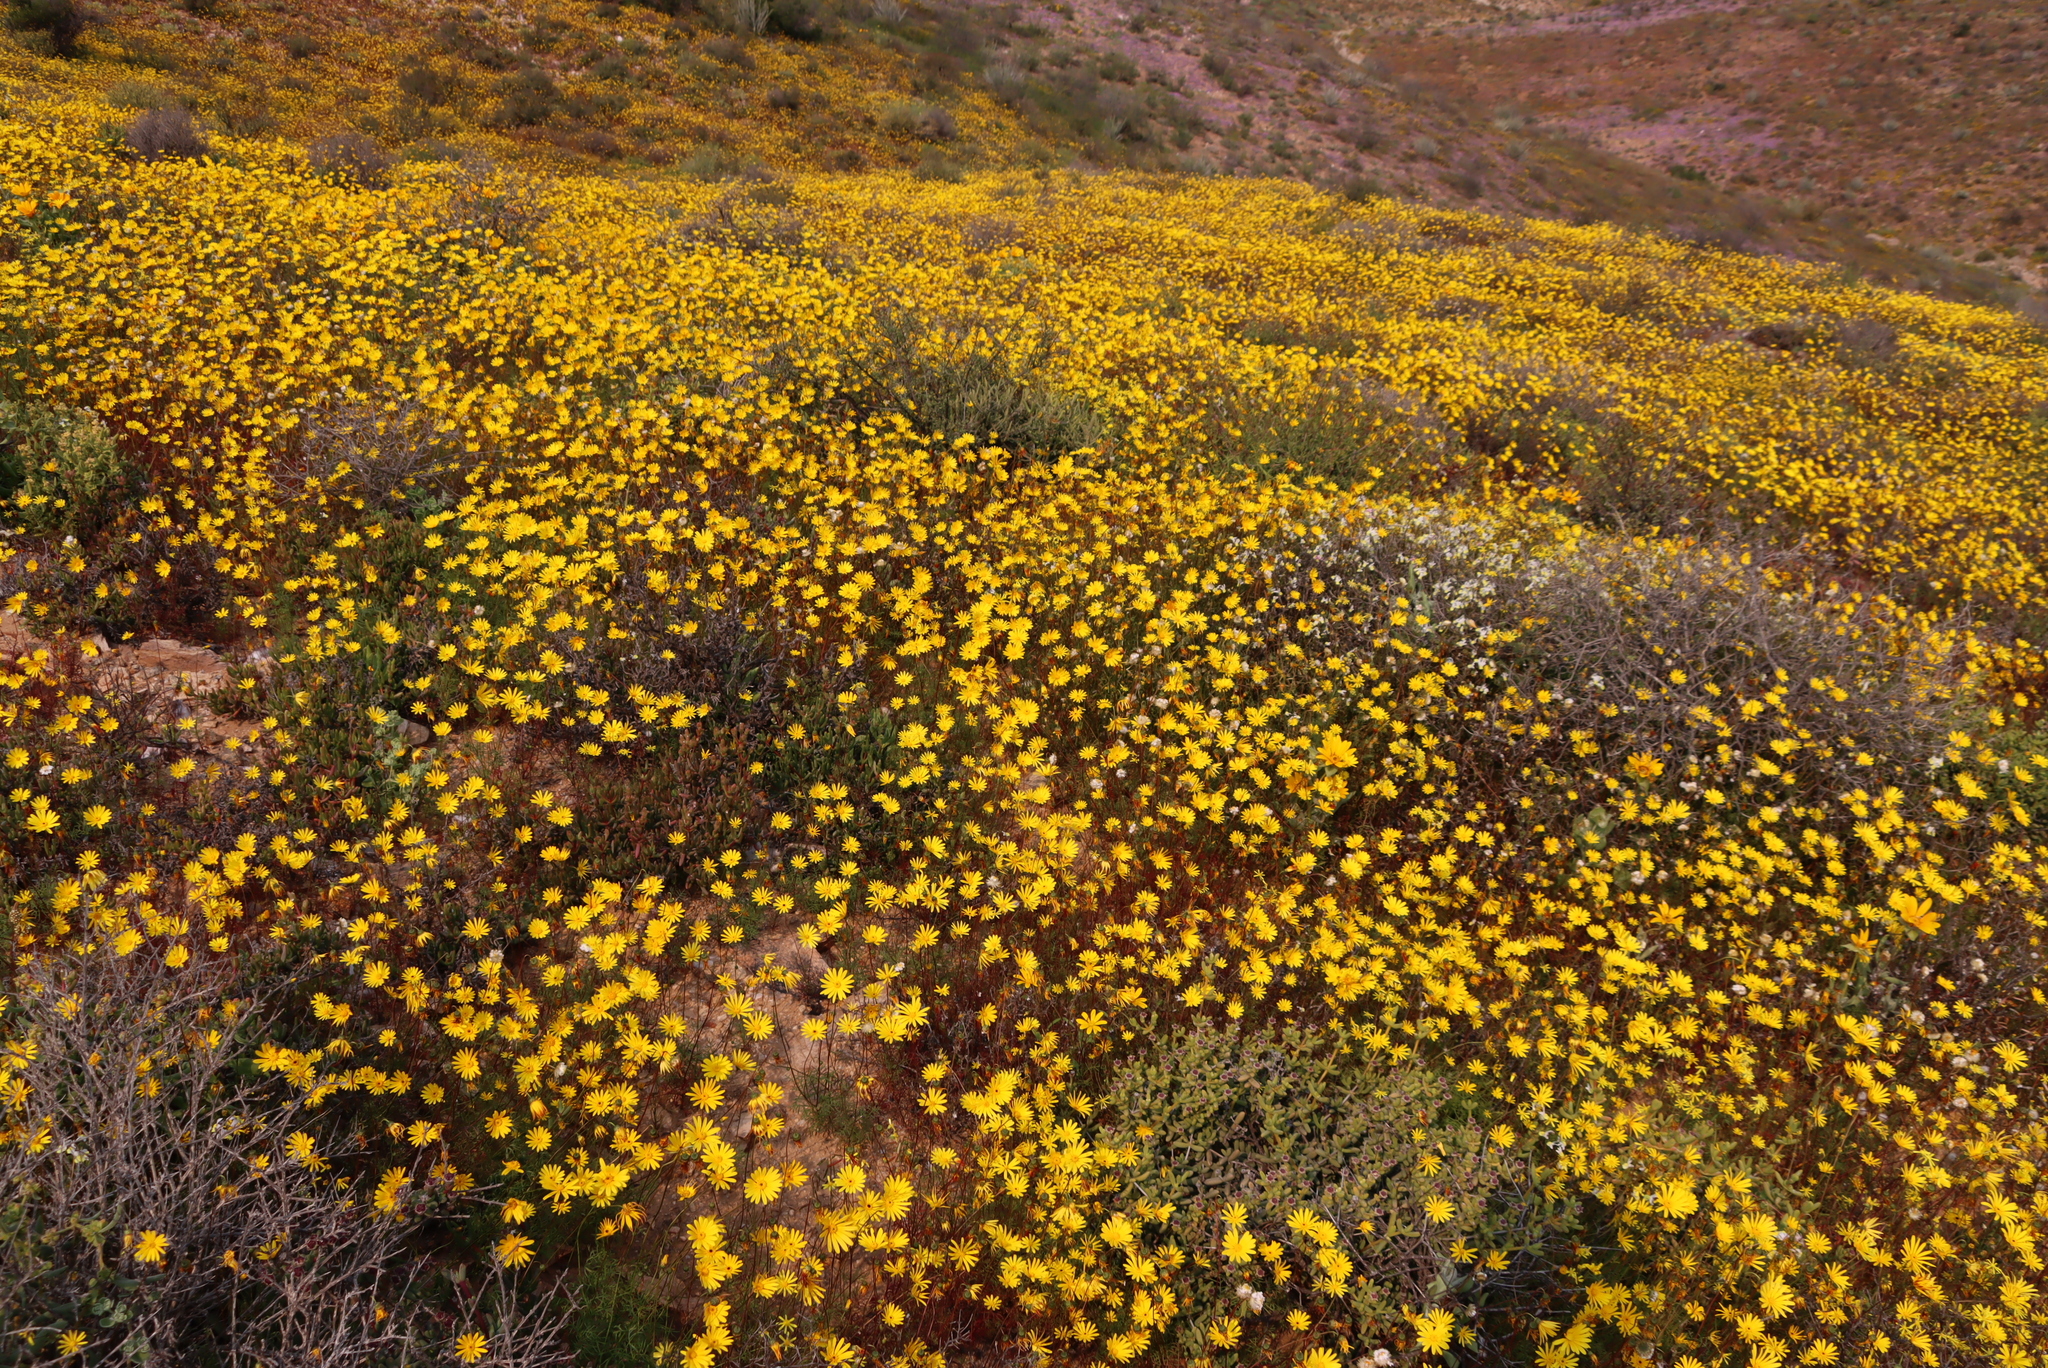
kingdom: Plantae
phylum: Tracheophyta
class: Magnoliopsida
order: Asterales
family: Asteraceae
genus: Ursinia
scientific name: Ursinia arida
